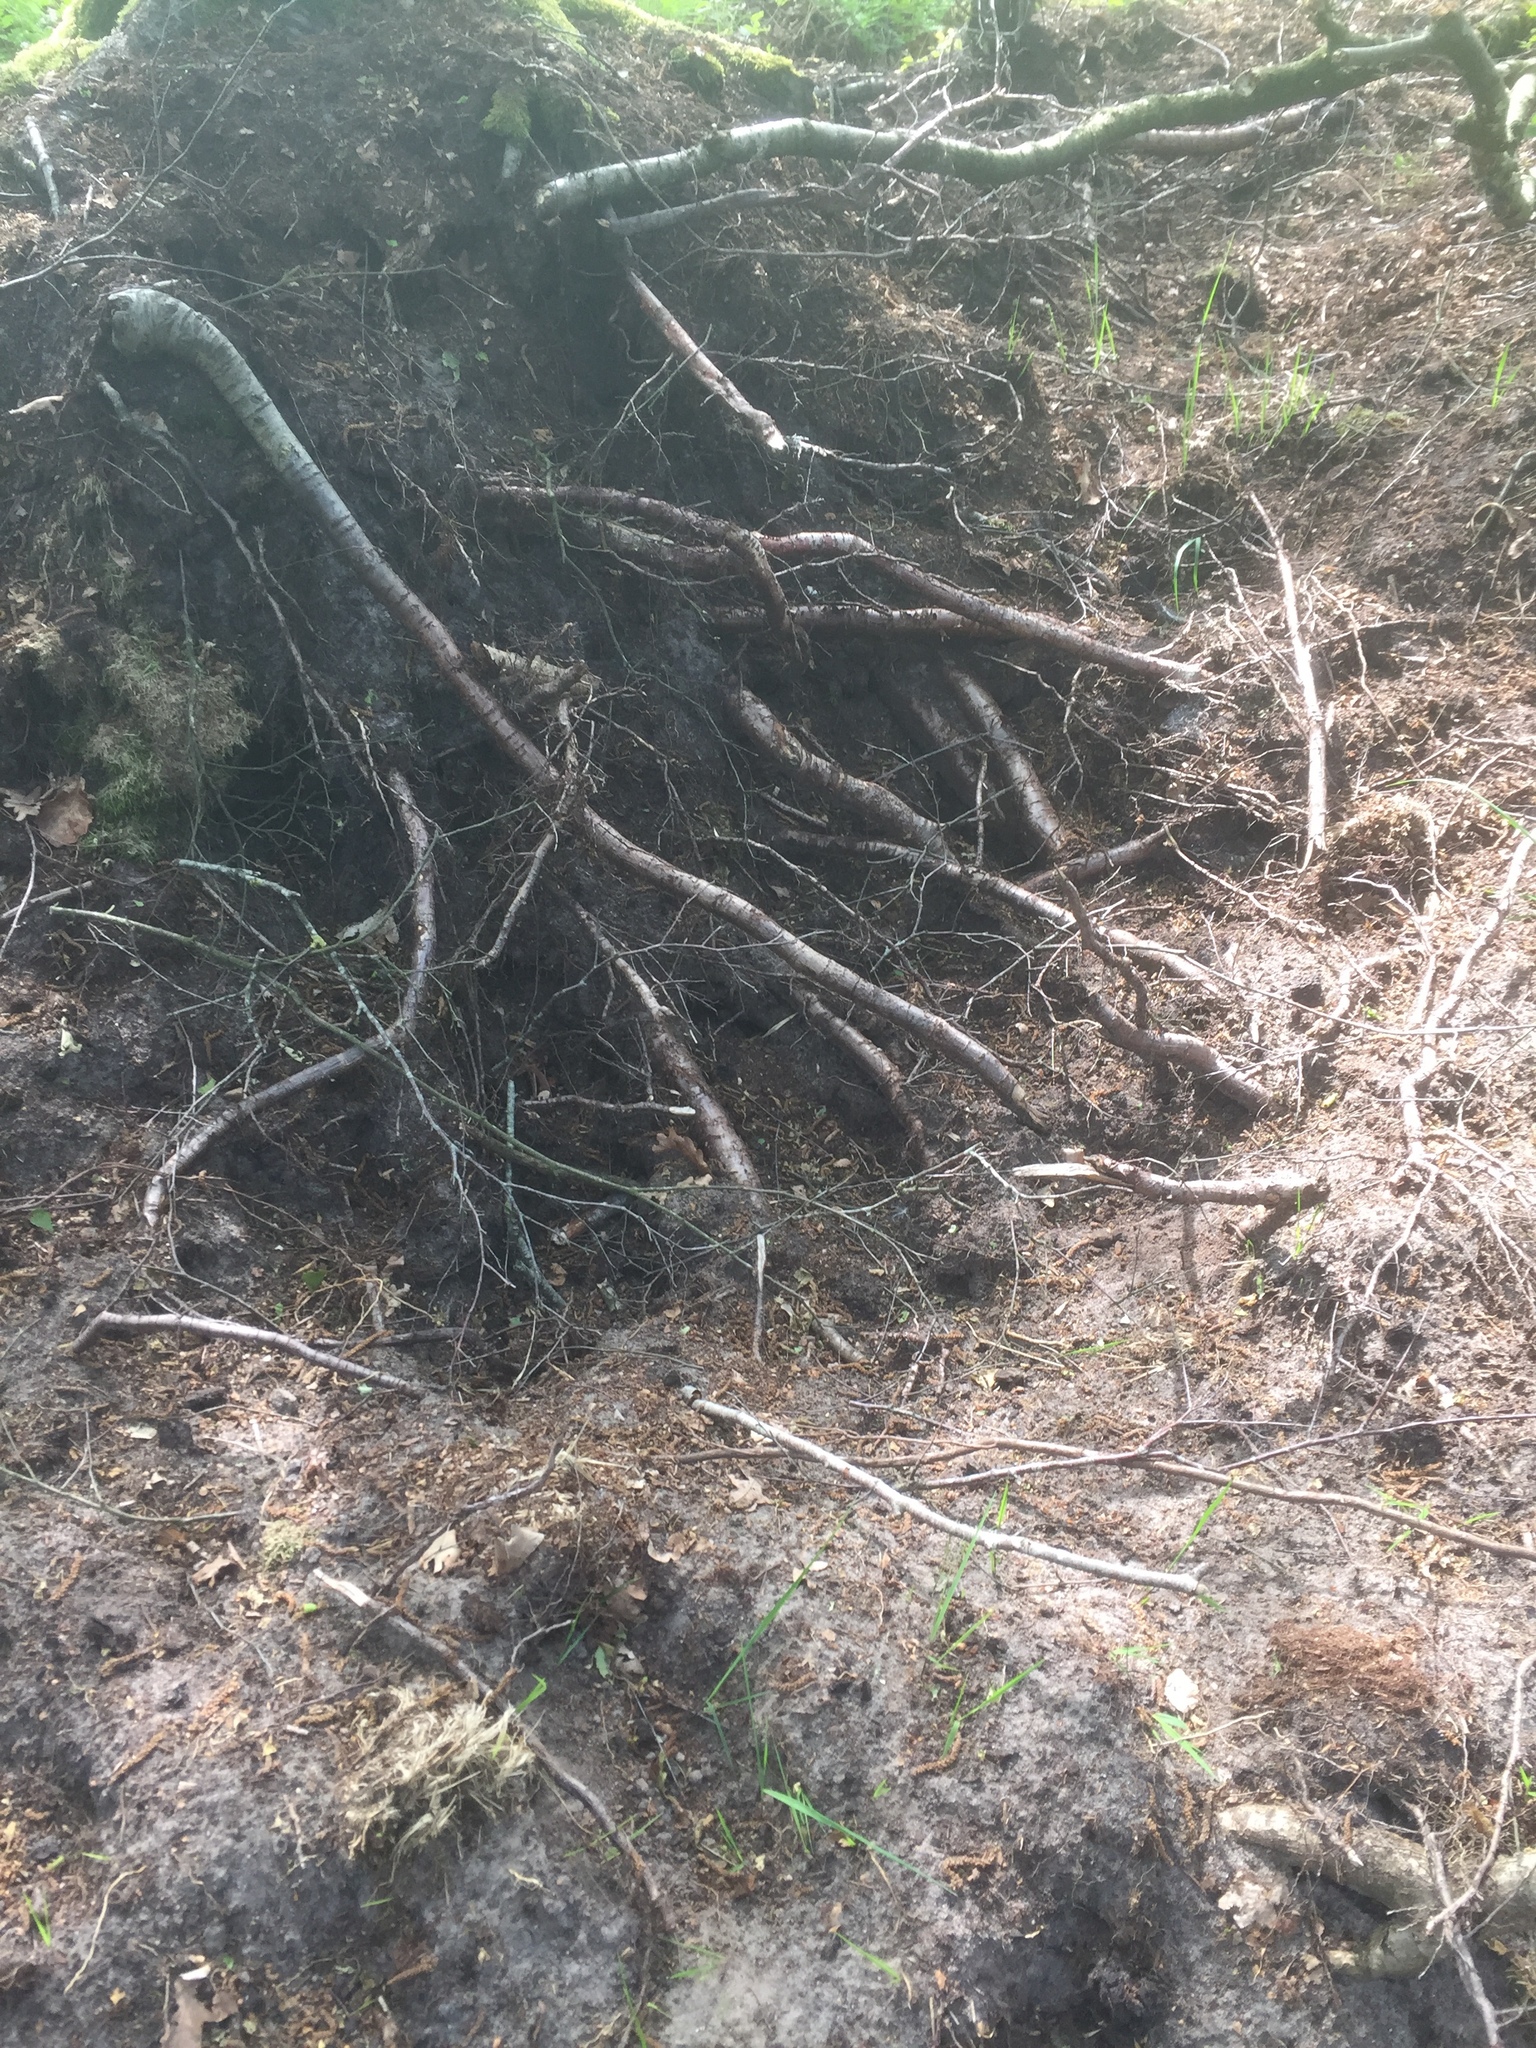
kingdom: Animalia
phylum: Chordata
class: Mammalia
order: Carnivora
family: Mustelidae
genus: Meles
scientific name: Meles meles
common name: Eurasian badger
